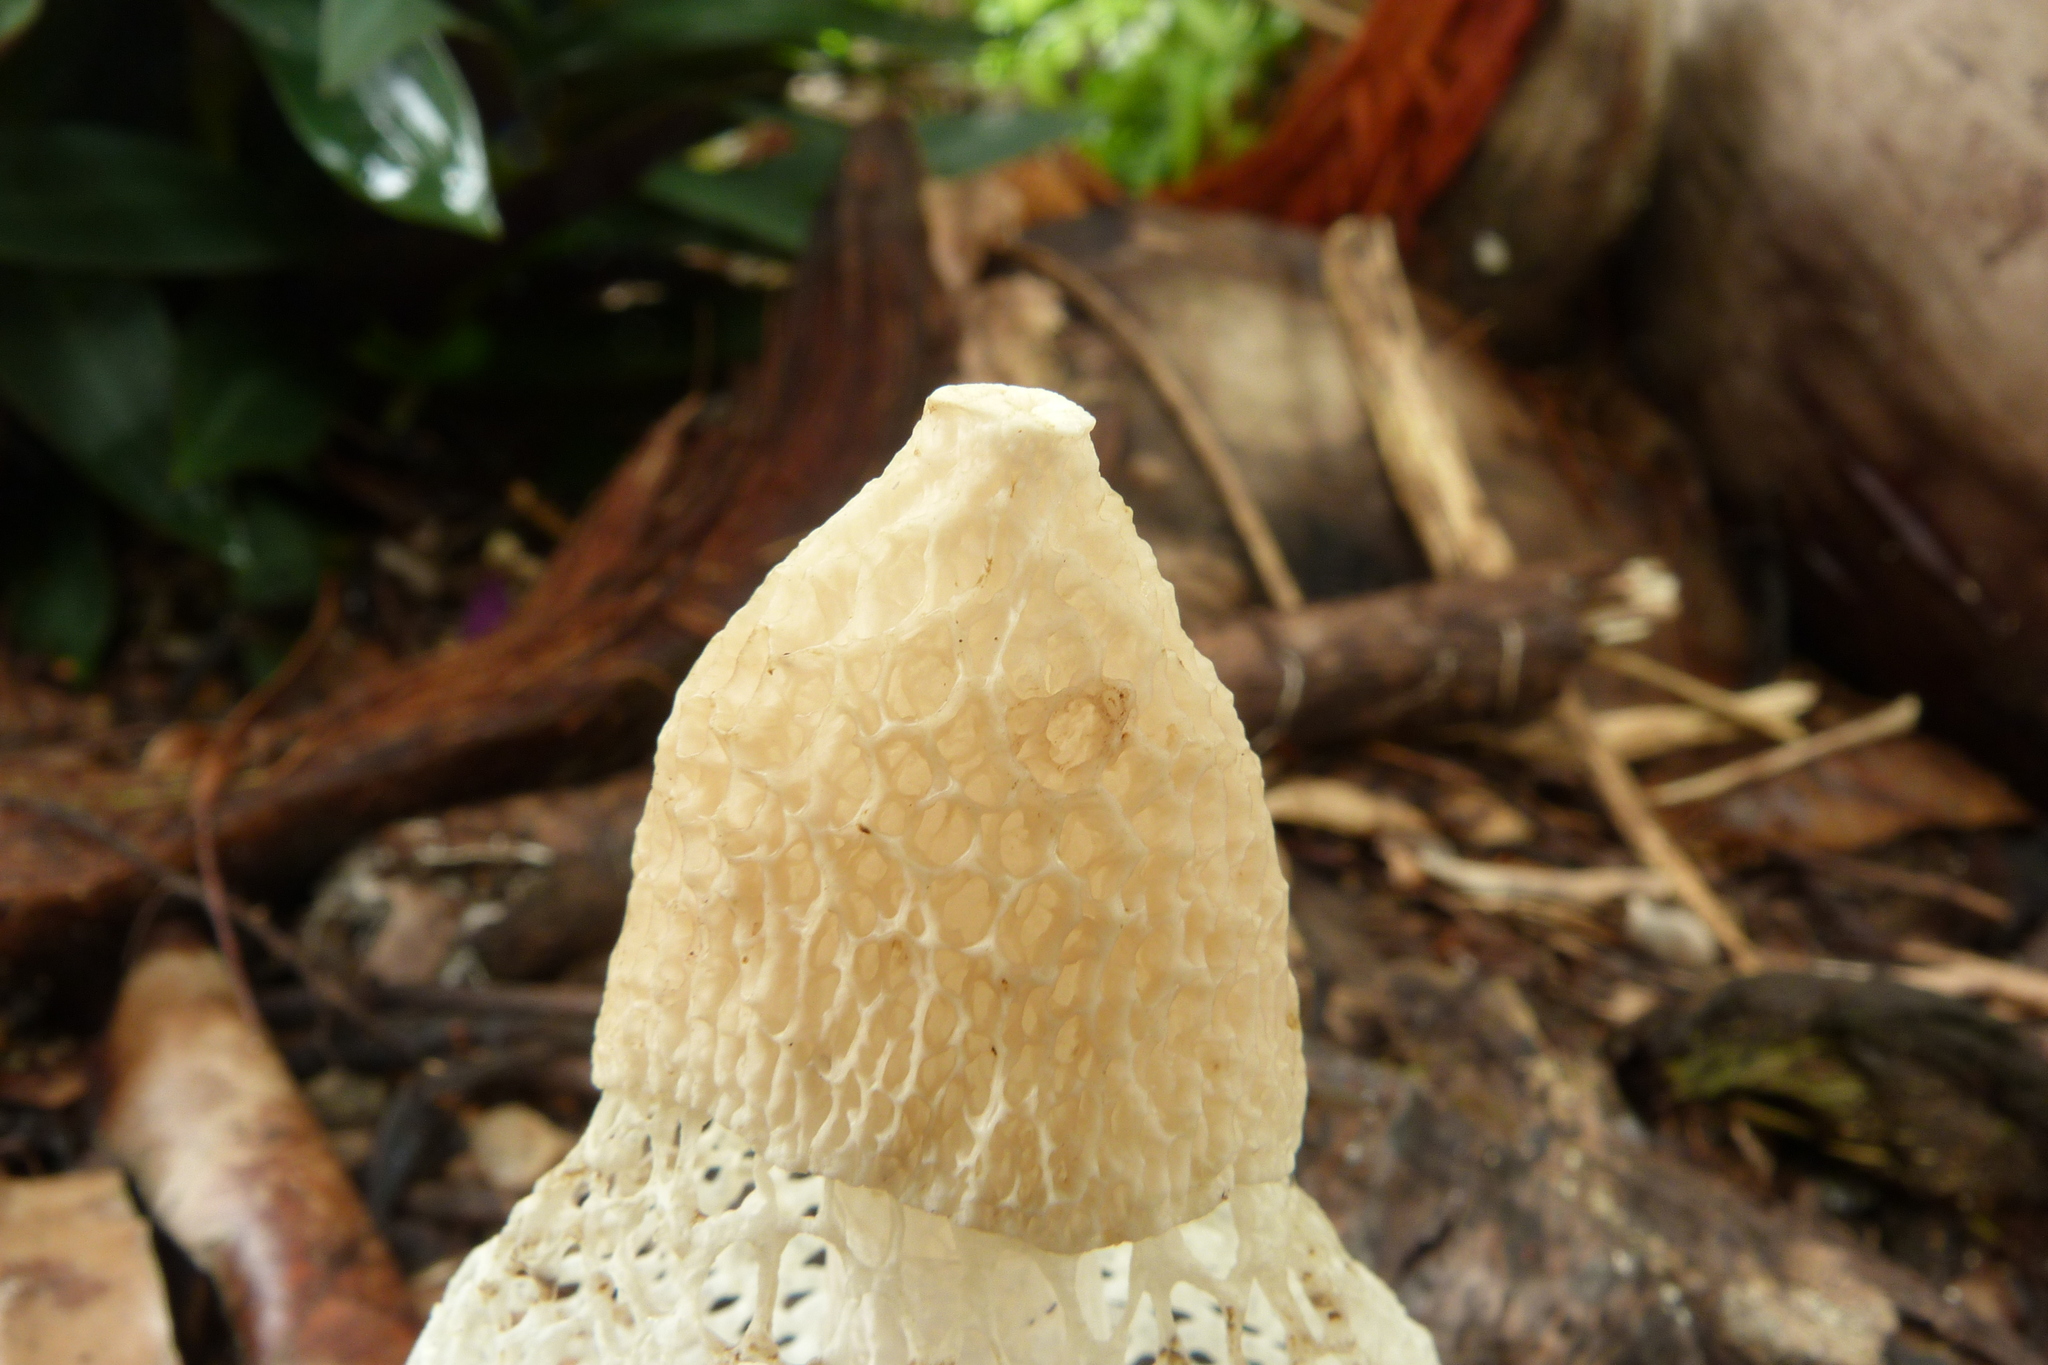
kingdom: Fungi
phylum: Basidiomycota
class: Agaricomycetes
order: Phallales
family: Phallaceae
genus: Phallus
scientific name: Phallus indusiatus
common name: Bridal veil stinkhorn
